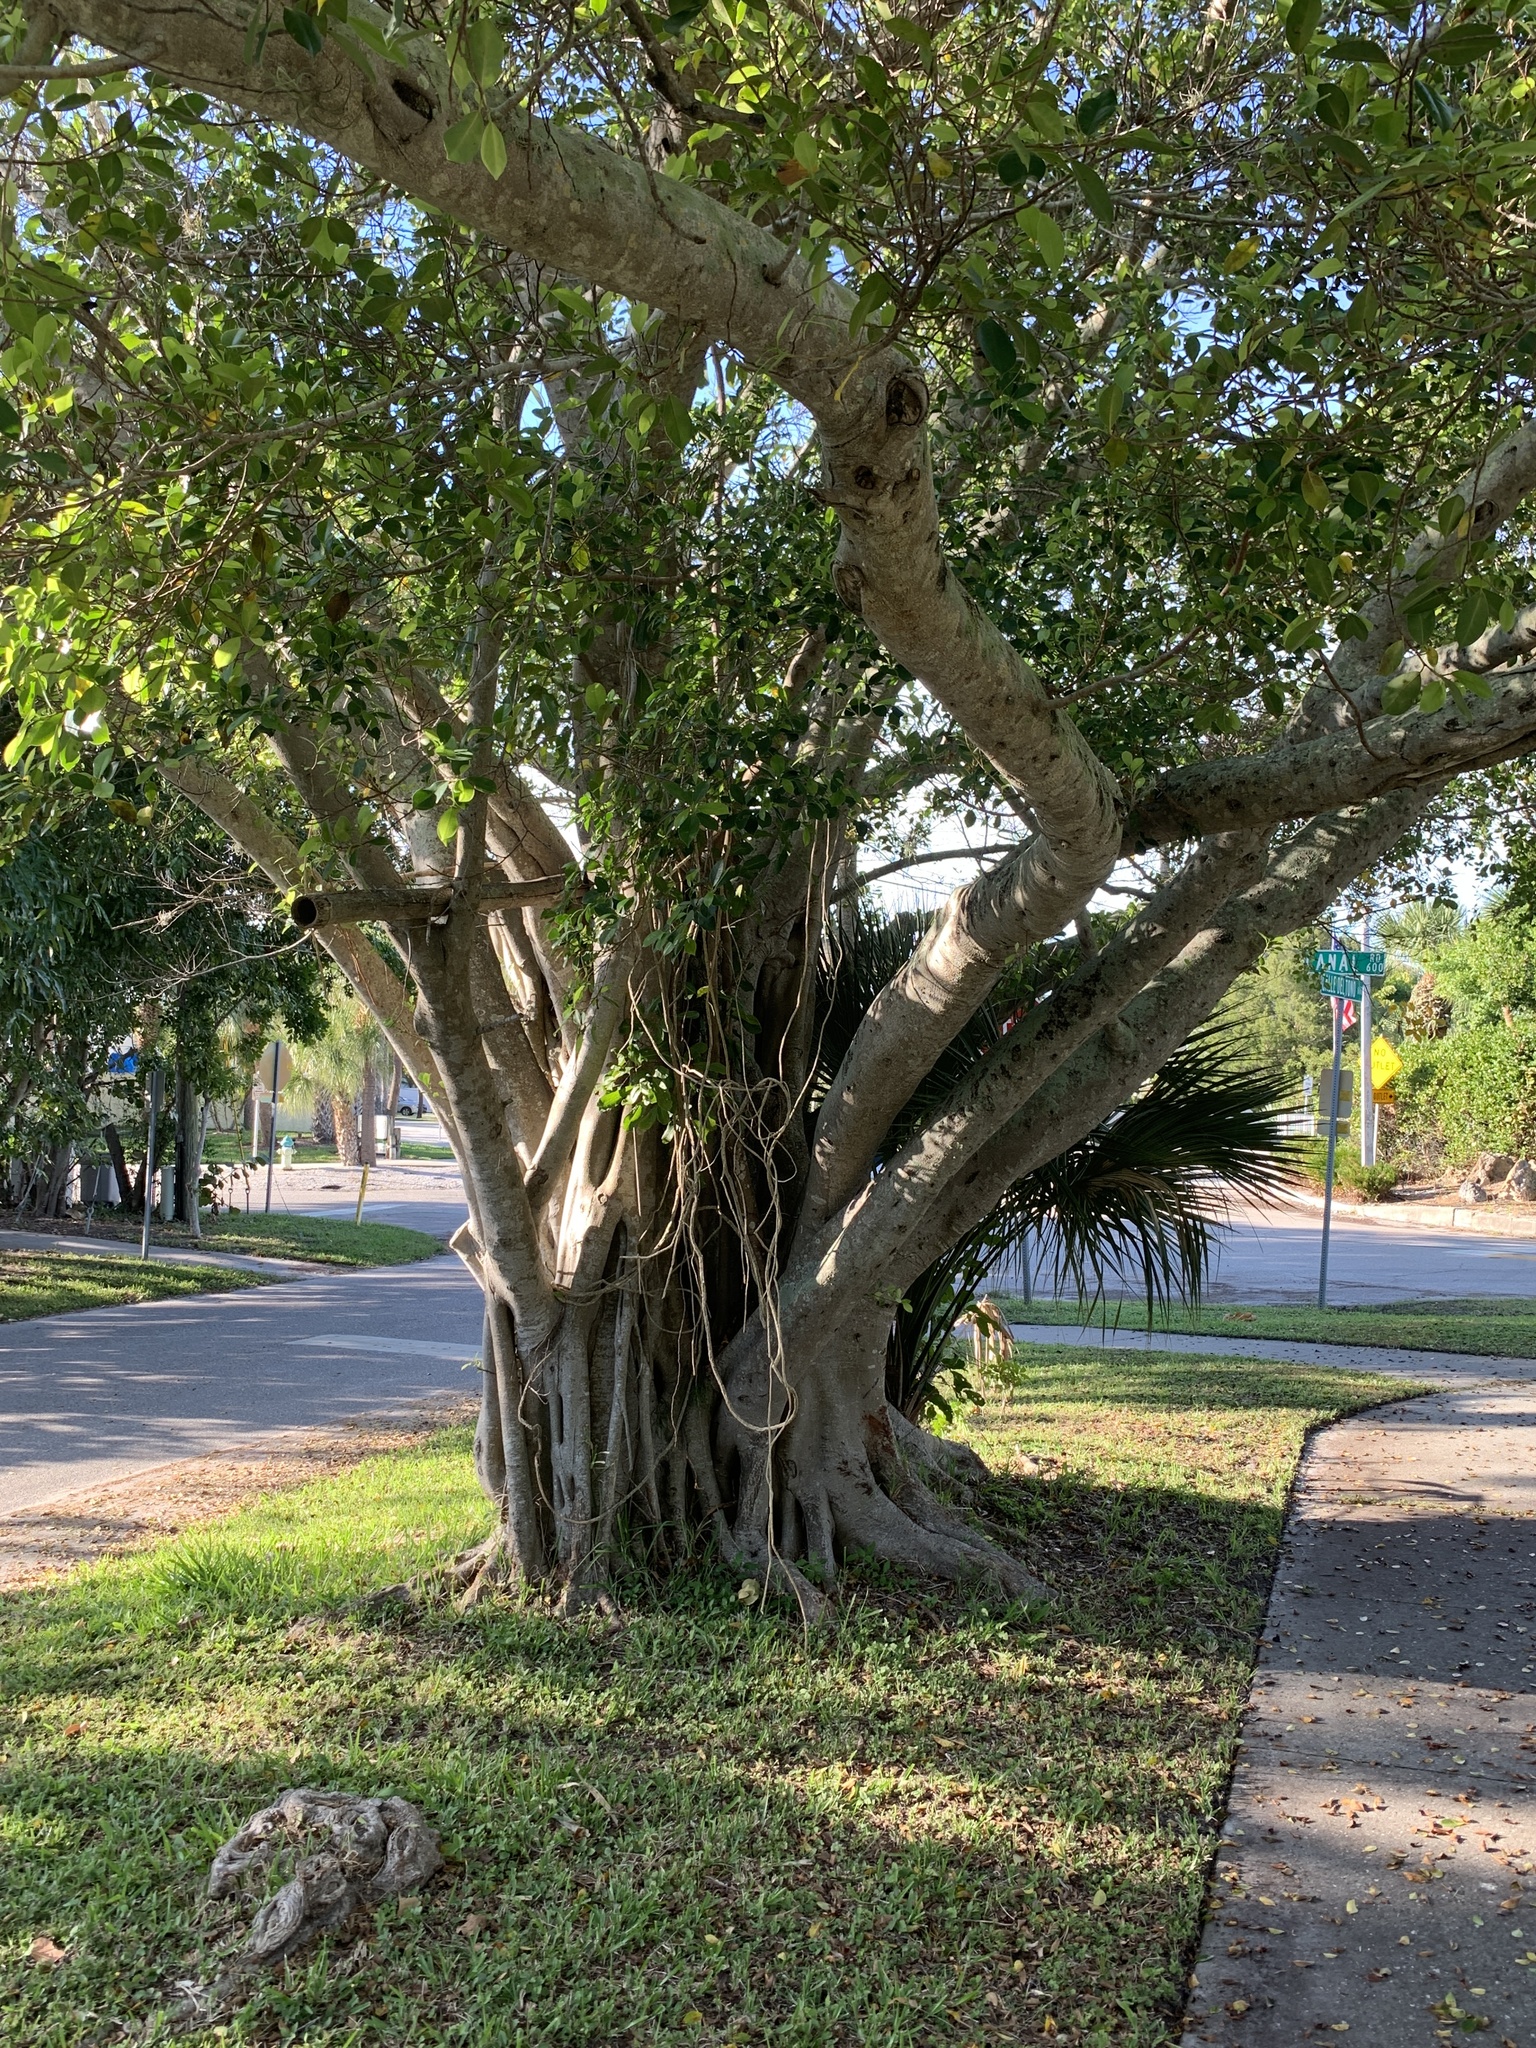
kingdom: Plantae
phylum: Tracheophyta
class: Magnoliopsida
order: Rosales
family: Moraceae
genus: Ficus
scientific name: Ficus microcarpa
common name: Chinese banyan
